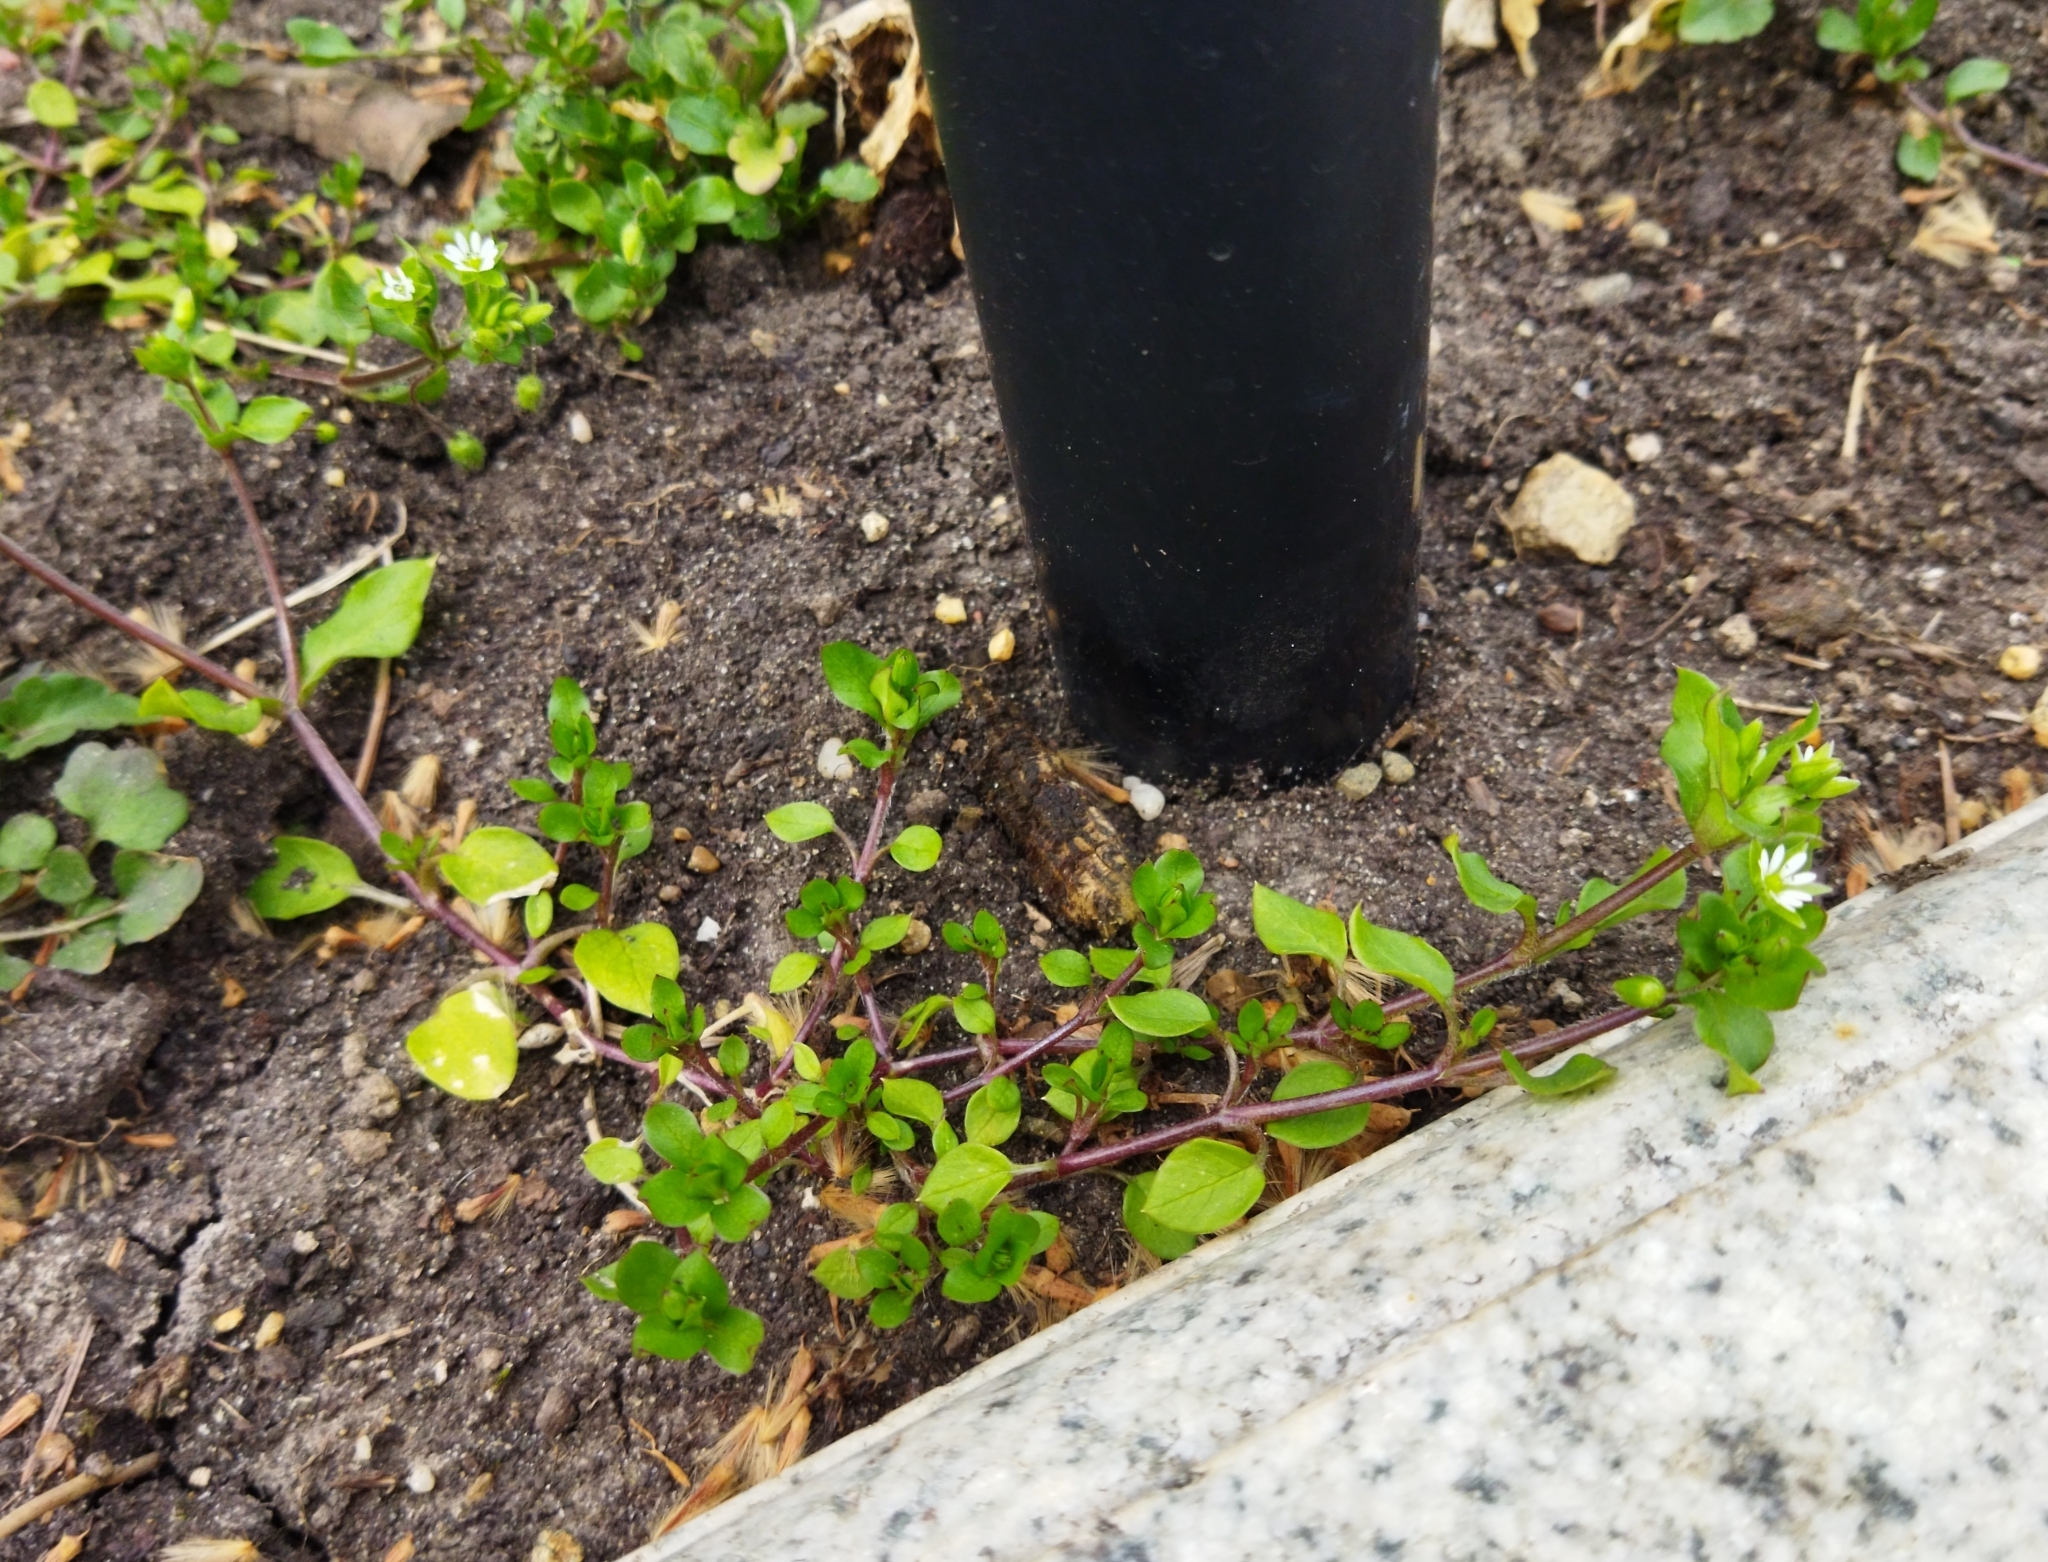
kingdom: Plantae
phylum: Tracheophyta
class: Magnoliopsida
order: Caryophyllales
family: Caryophyllaceae
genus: Stellaria
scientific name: Stellaria media
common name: Common chickweed
